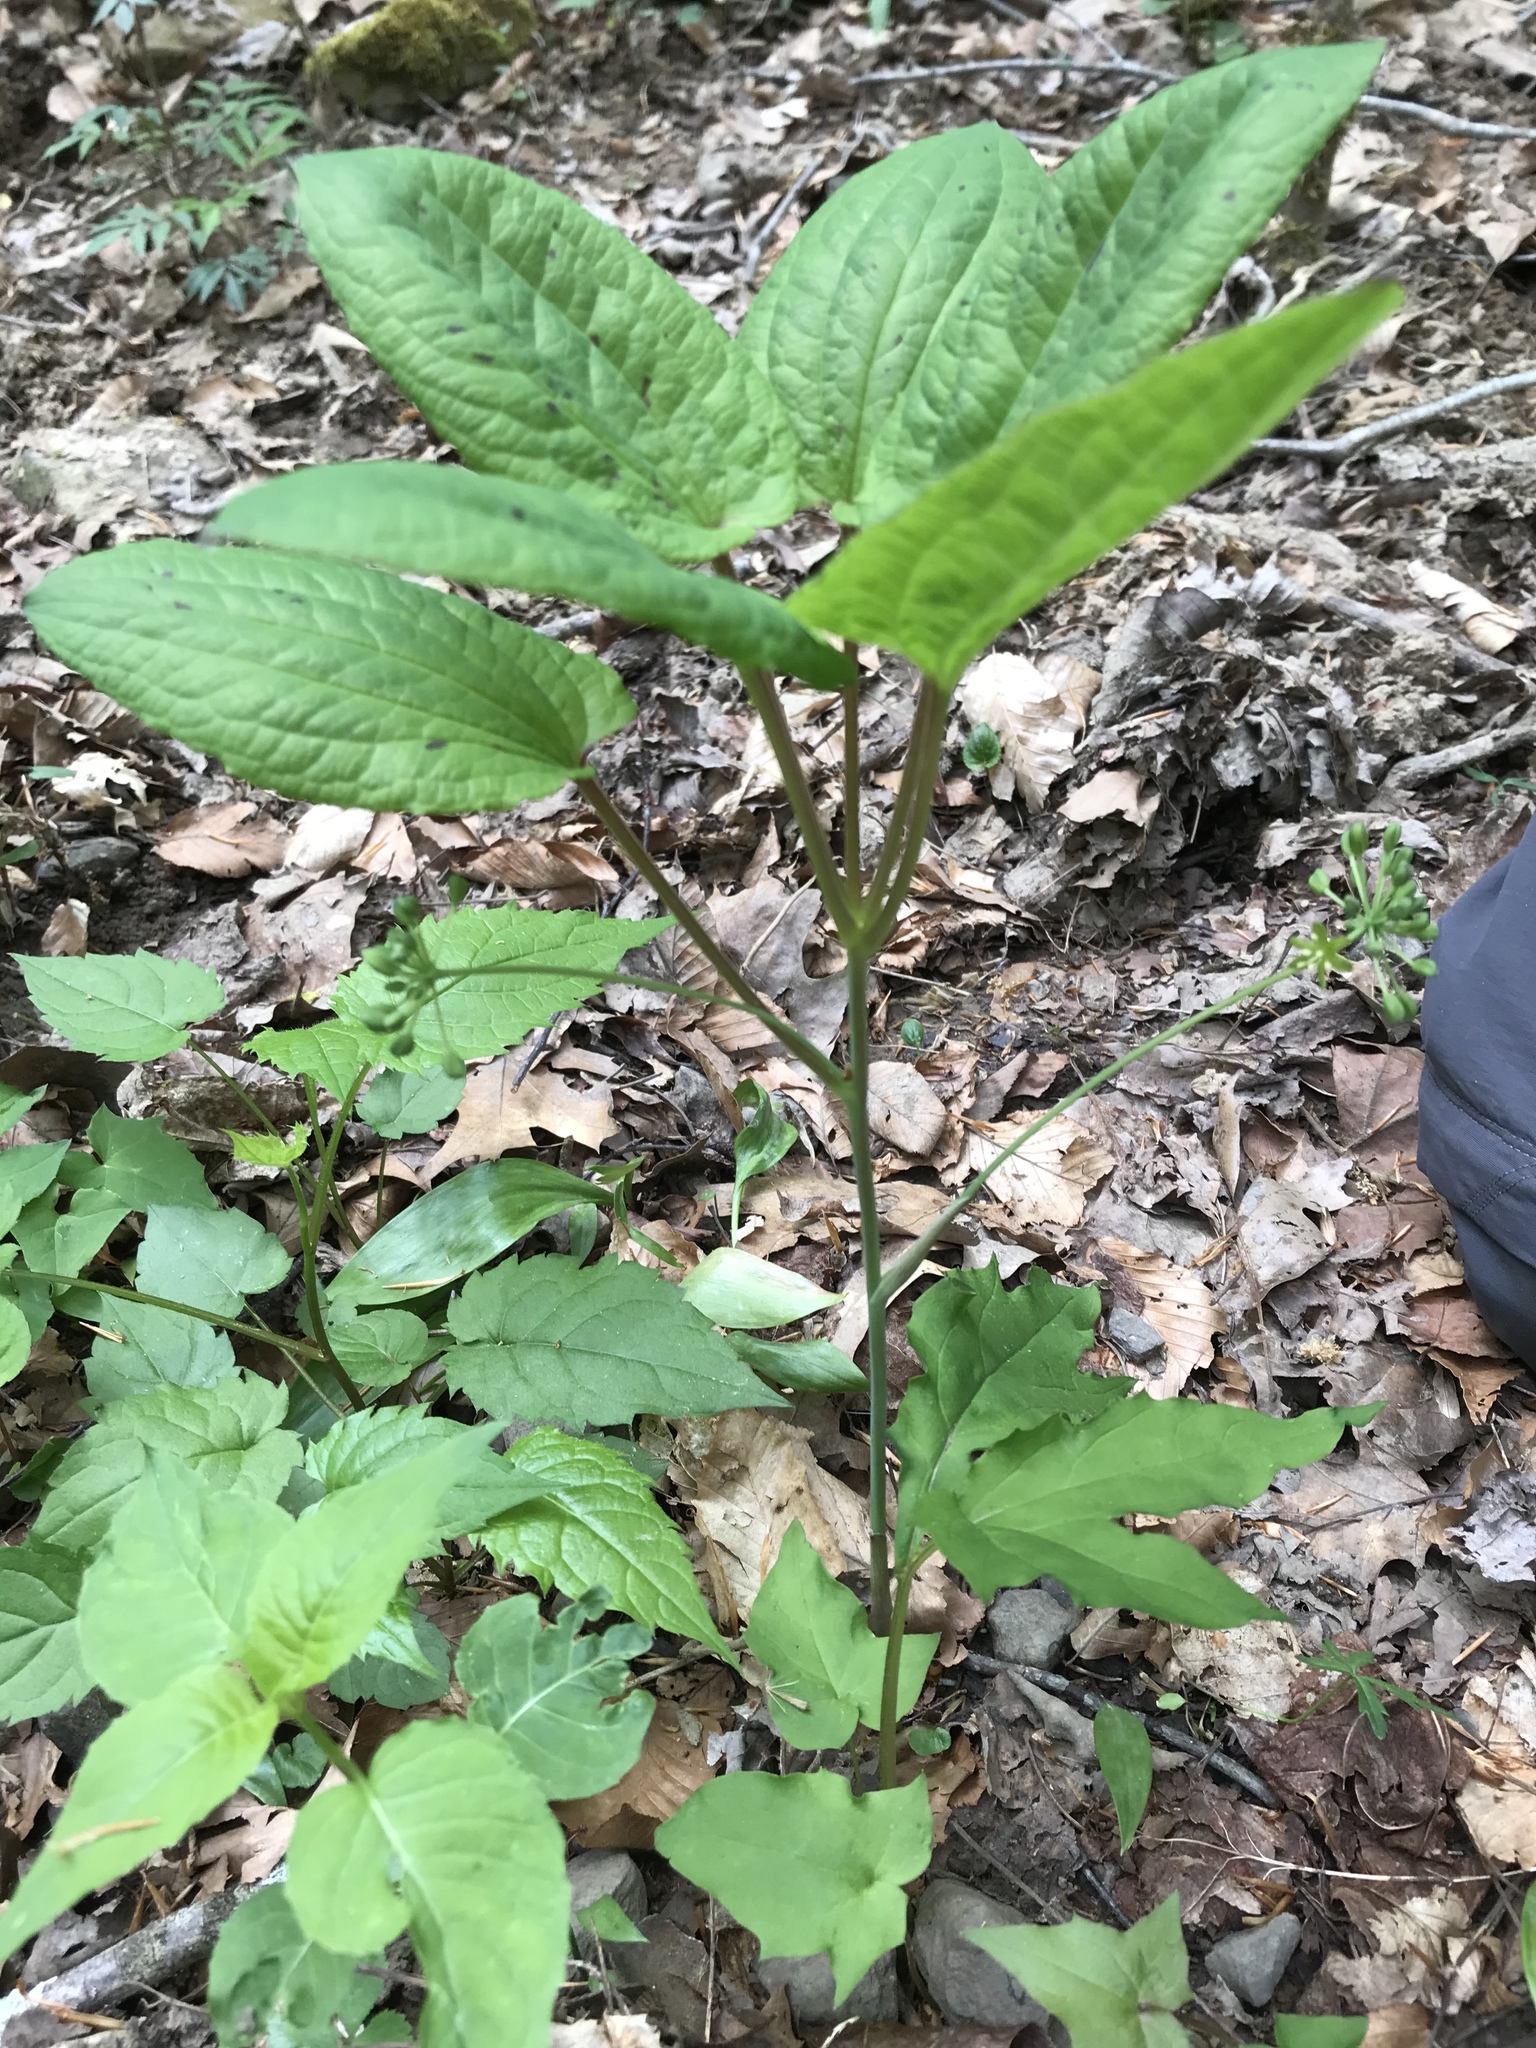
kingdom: Plantae
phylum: Tracheophyta
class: Liliopsida
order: Liliales
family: Smilacaceae
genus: Smilax
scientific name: Smilax ecirrhata
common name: Upright carrionflower
